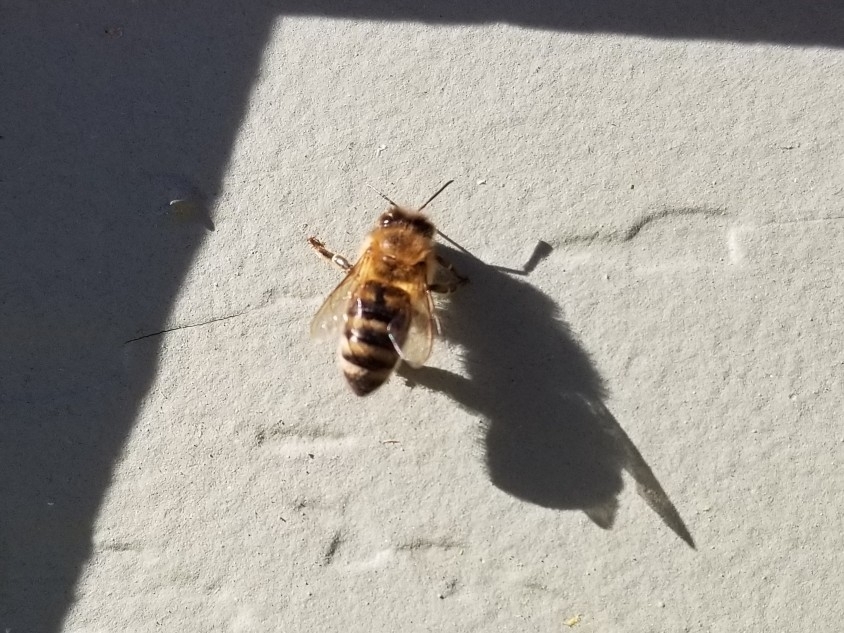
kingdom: Animalia
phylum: Arthropoda
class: Insecta
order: Hymenoptera
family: Apidae
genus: Apis
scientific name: Apis mellifera
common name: Honey bee
